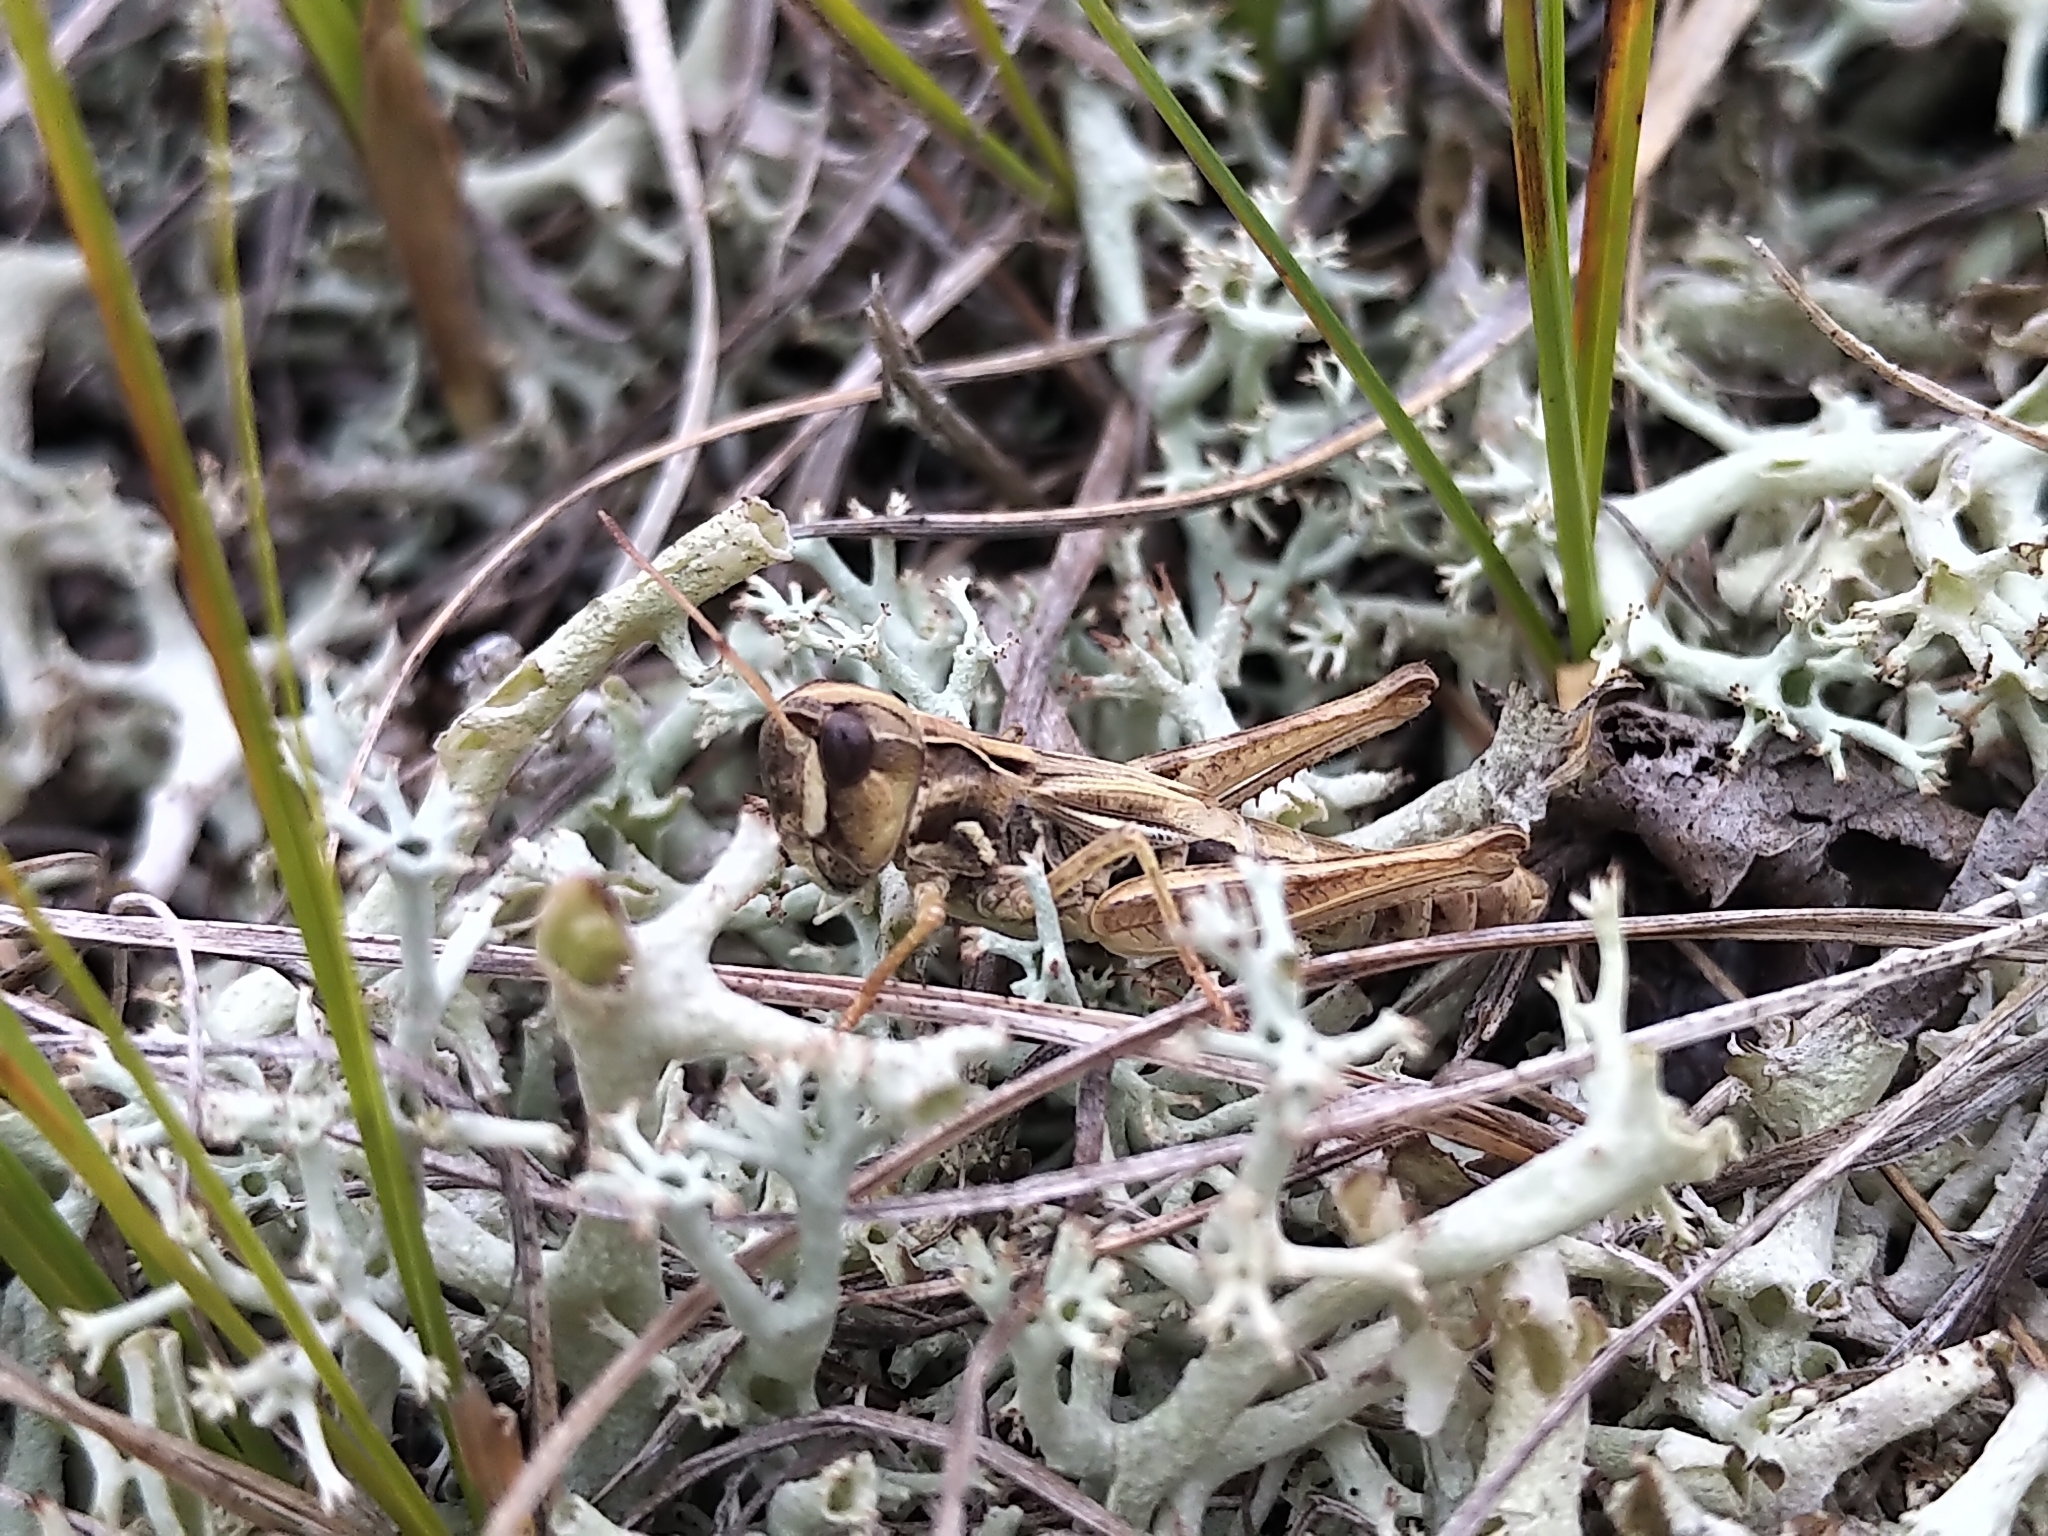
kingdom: Animalia
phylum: Arthropoda
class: Insecta
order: Orthoptera
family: Acrididae
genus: Aeropedellus
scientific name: Aeropedellus clavatus
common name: Clubhorned grasshopper
